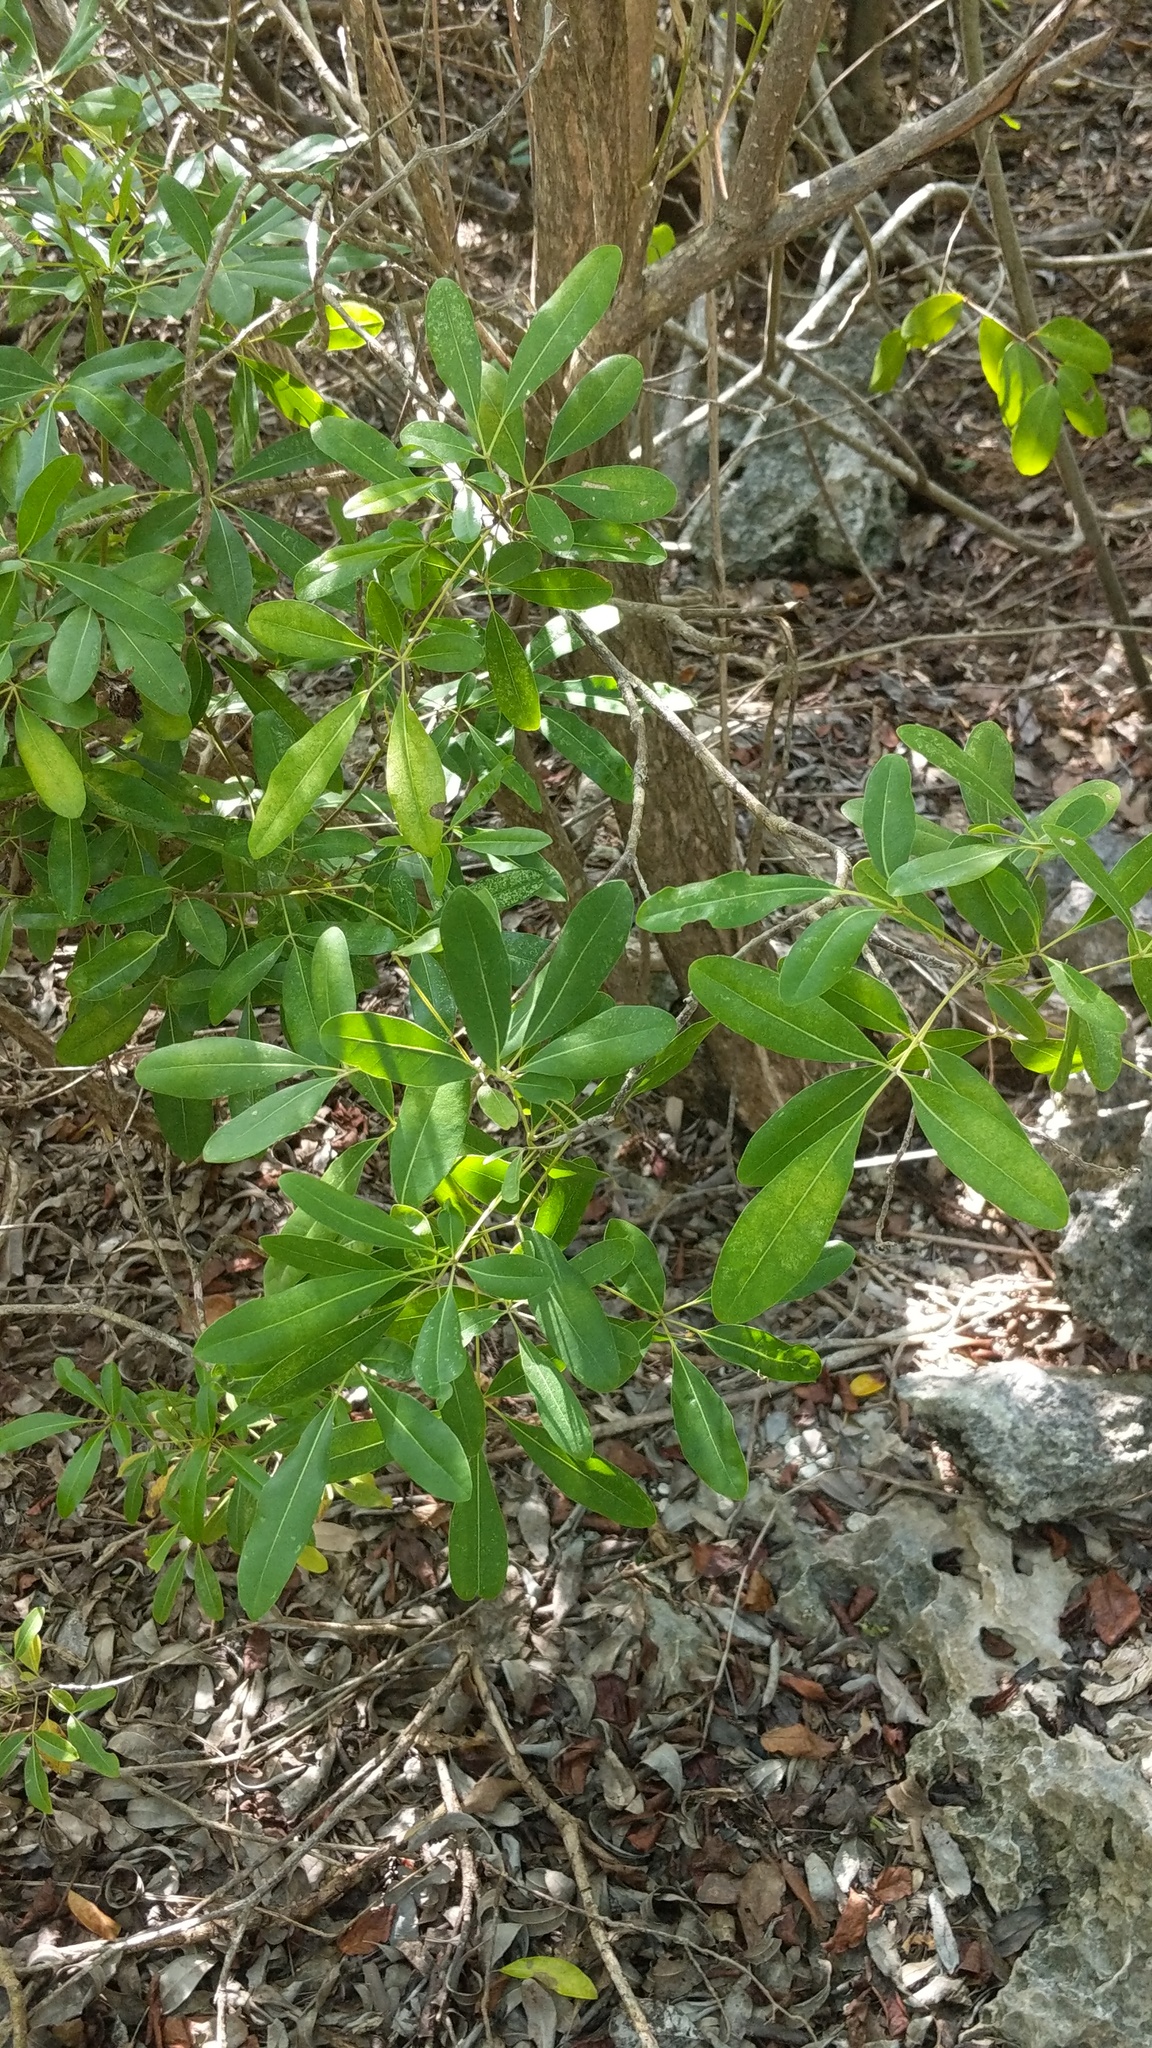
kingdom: Plantae
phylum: Tracheophyta
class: Magnoliopsida
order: Lamiales
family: Bignoniaceae
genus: Tabebuia
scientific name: Tabebuia heterophylla
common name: White cedar
